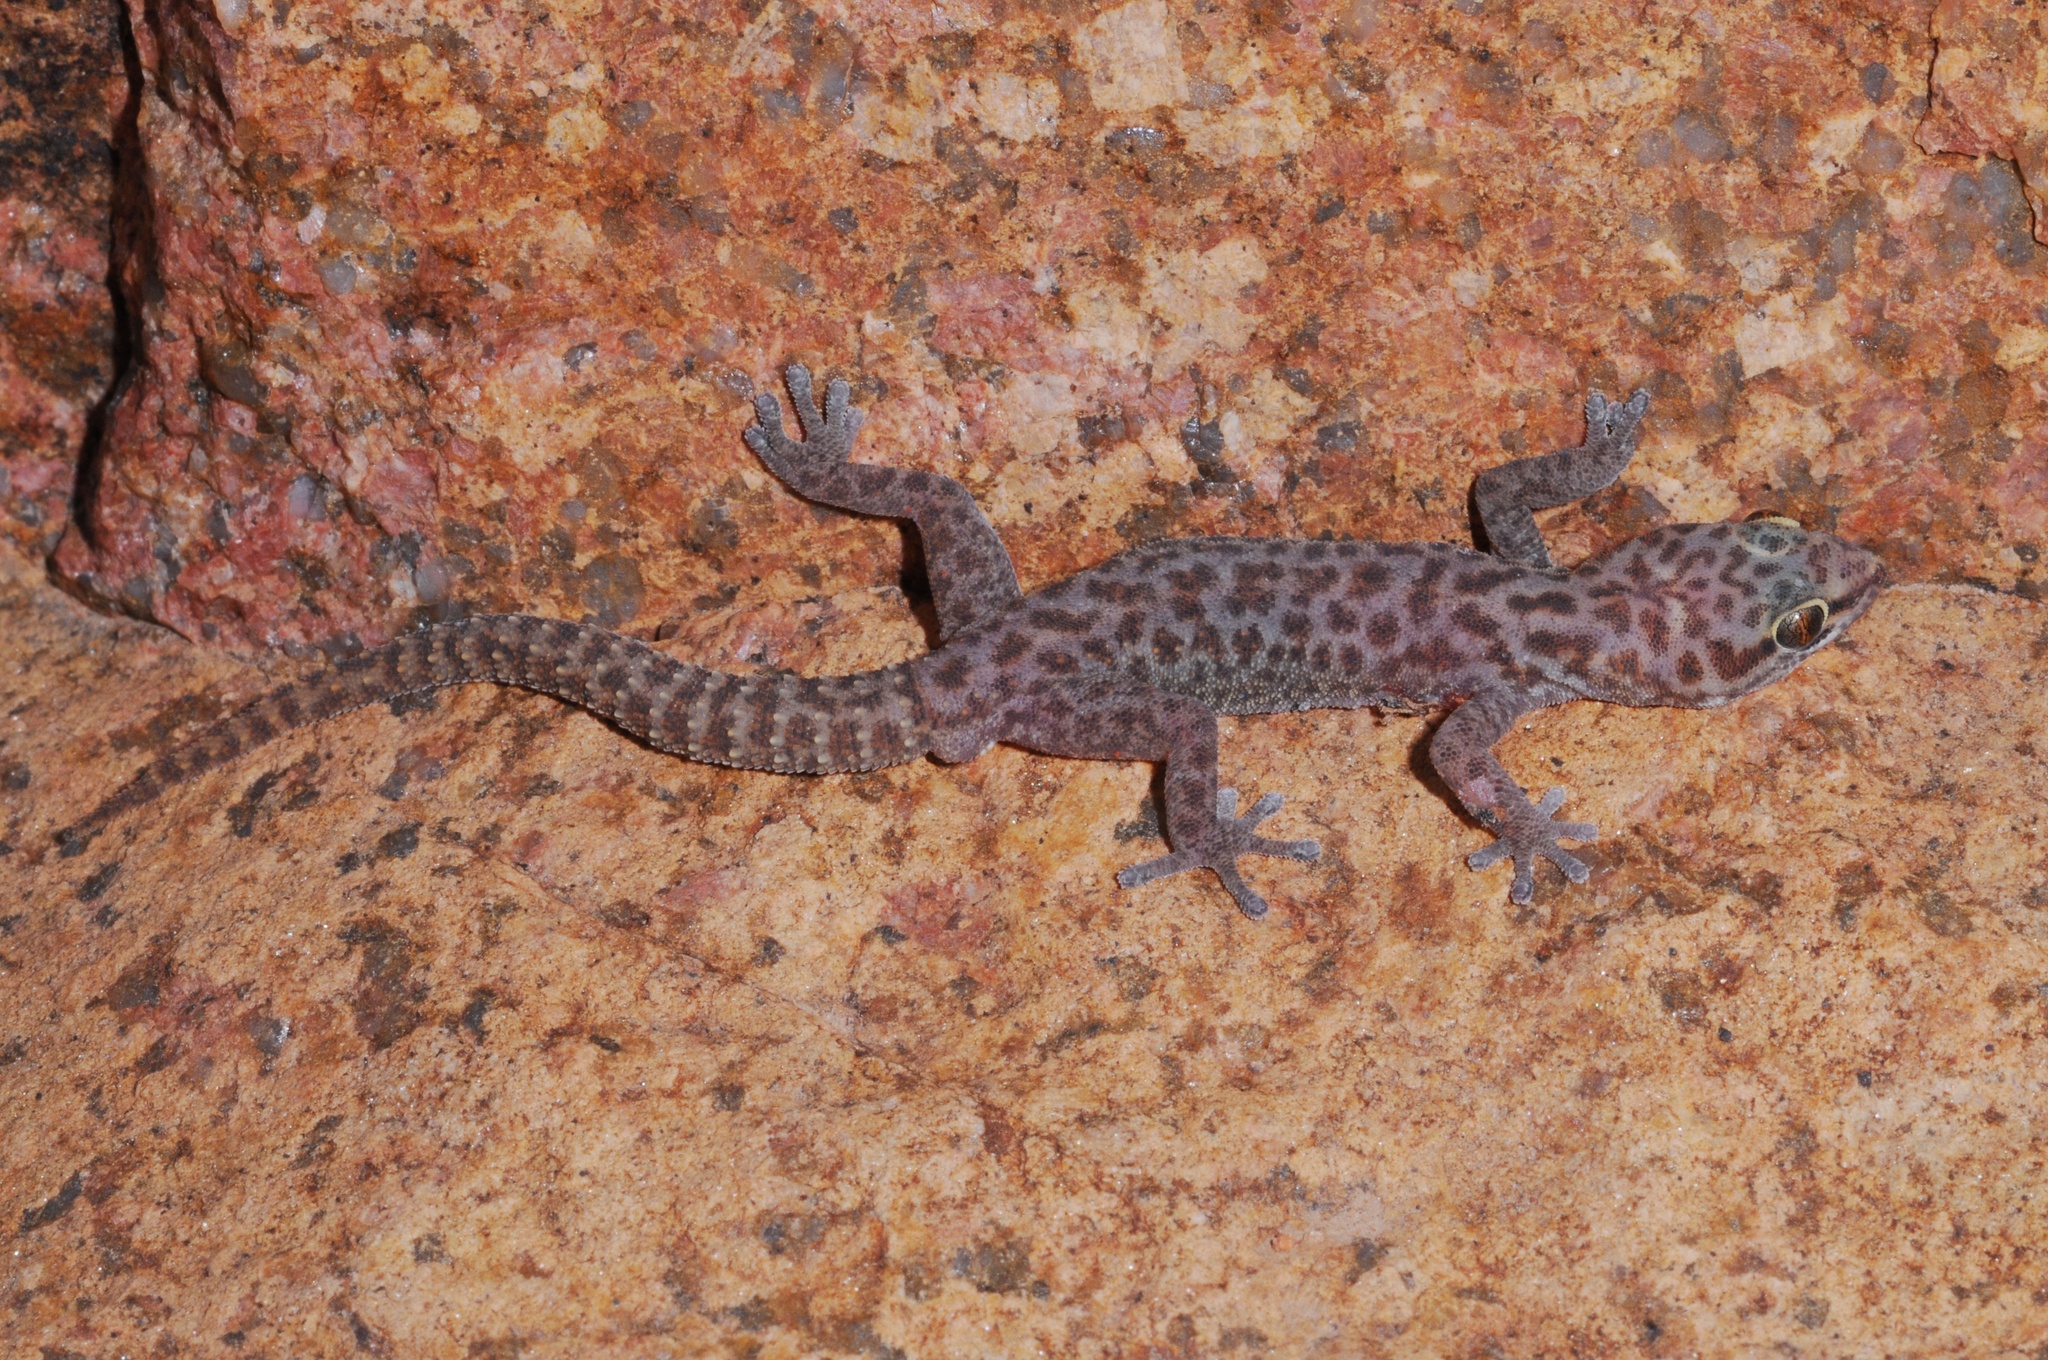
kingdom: Animalia
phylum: Chordata
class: Squamata
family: Gekkonidae
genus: Pachydactylus
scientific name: Pachydactylus serval
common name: Western spotted thick-toed gecko
